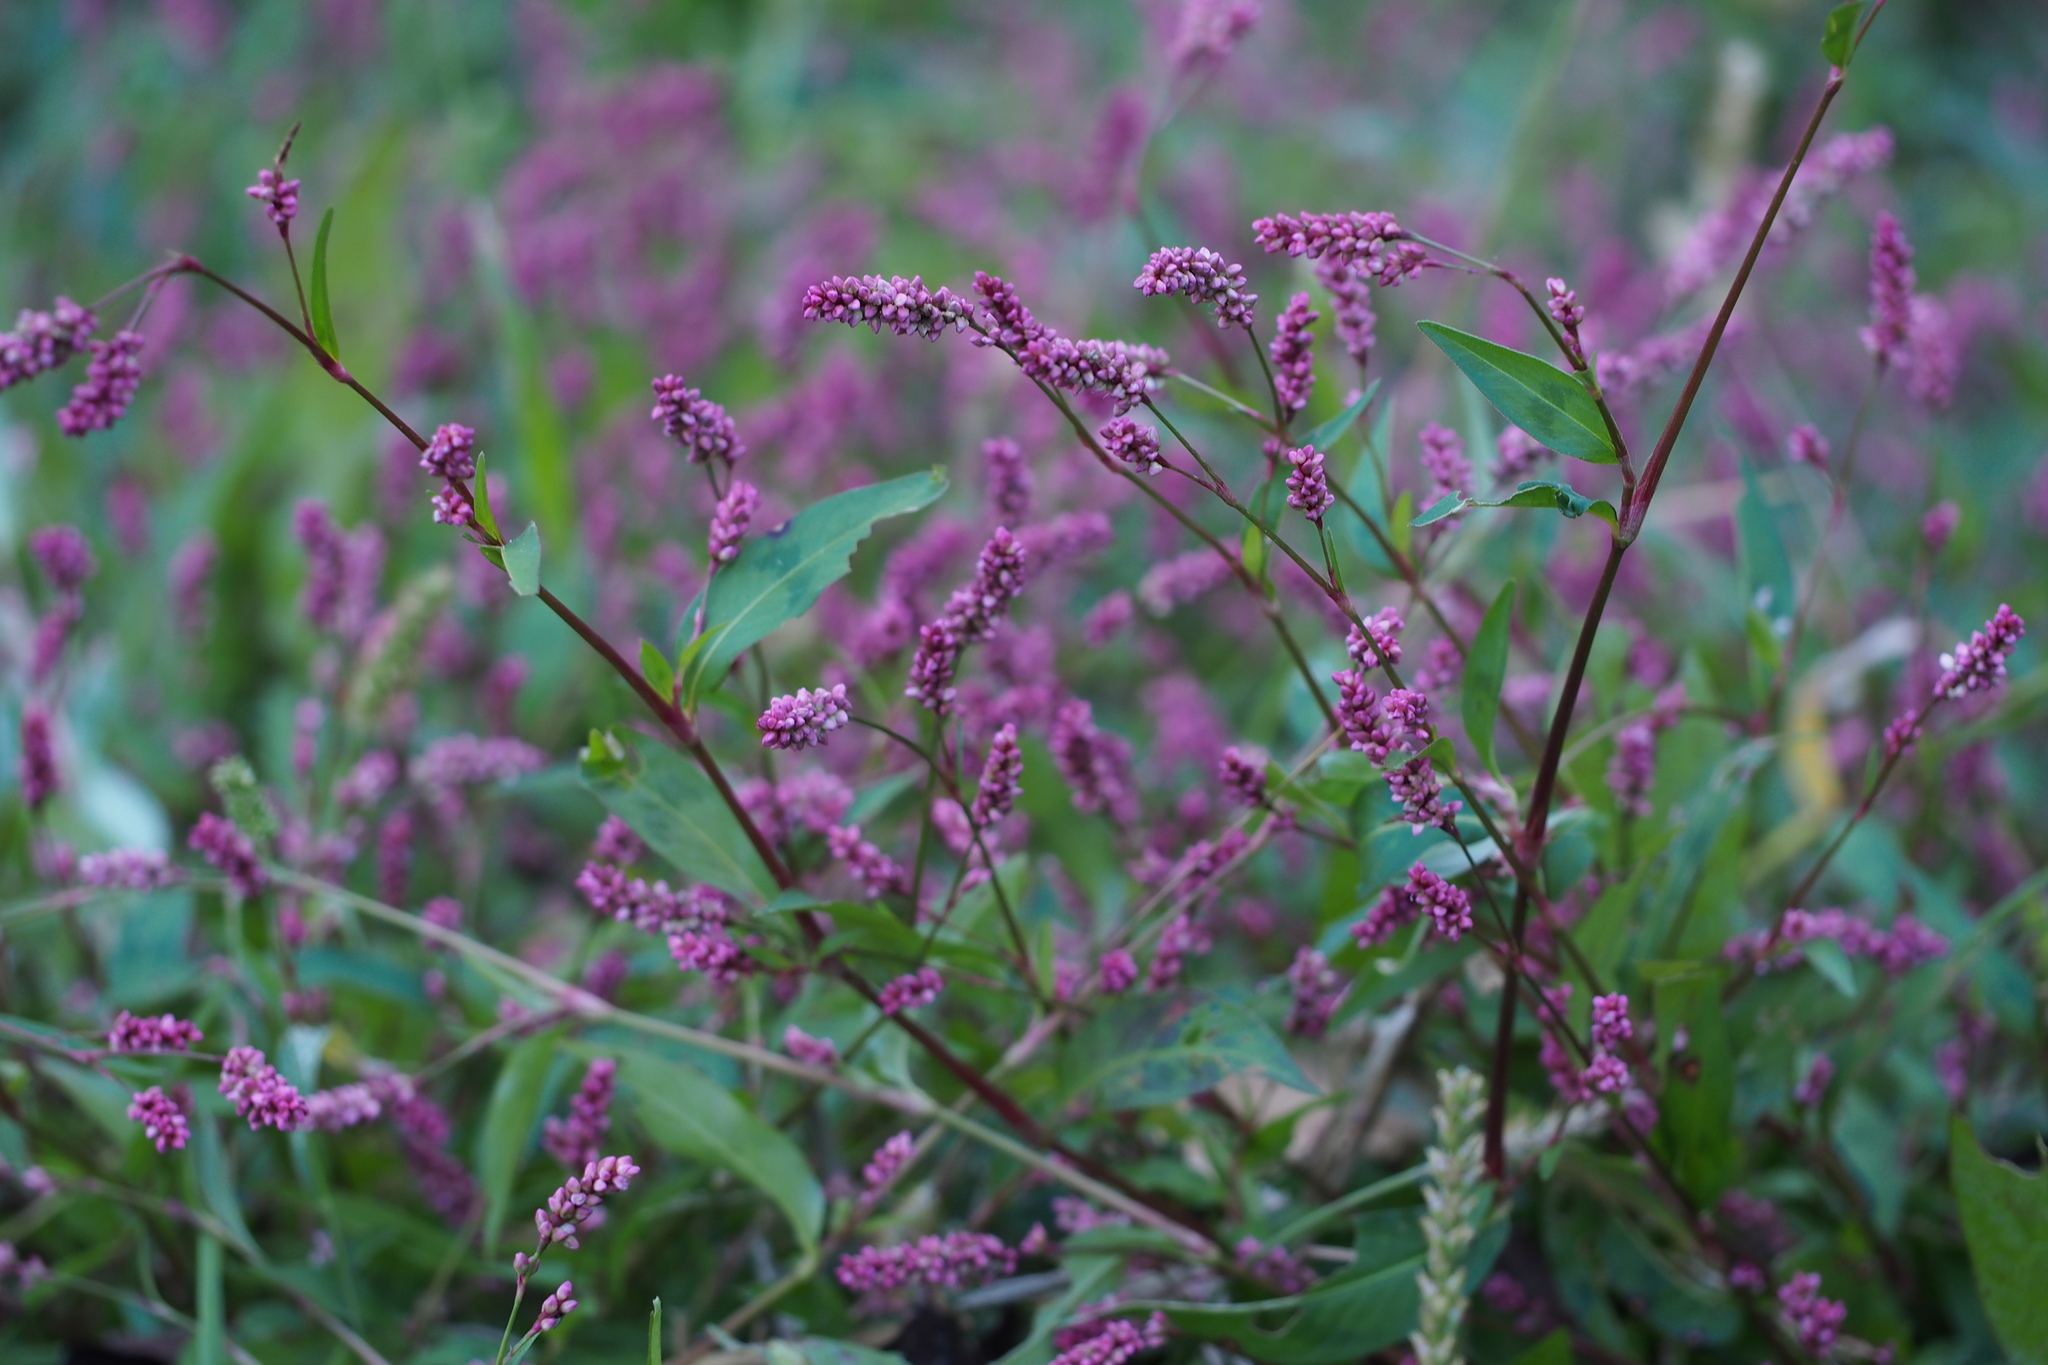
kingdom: Plantae
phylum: Tracheophyta
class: Magnoliopsida
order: Caryophyllales
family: Polygonaceae
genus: Persicaria
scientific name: Persicaria longiseta
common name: Bristly lady's-thumb
